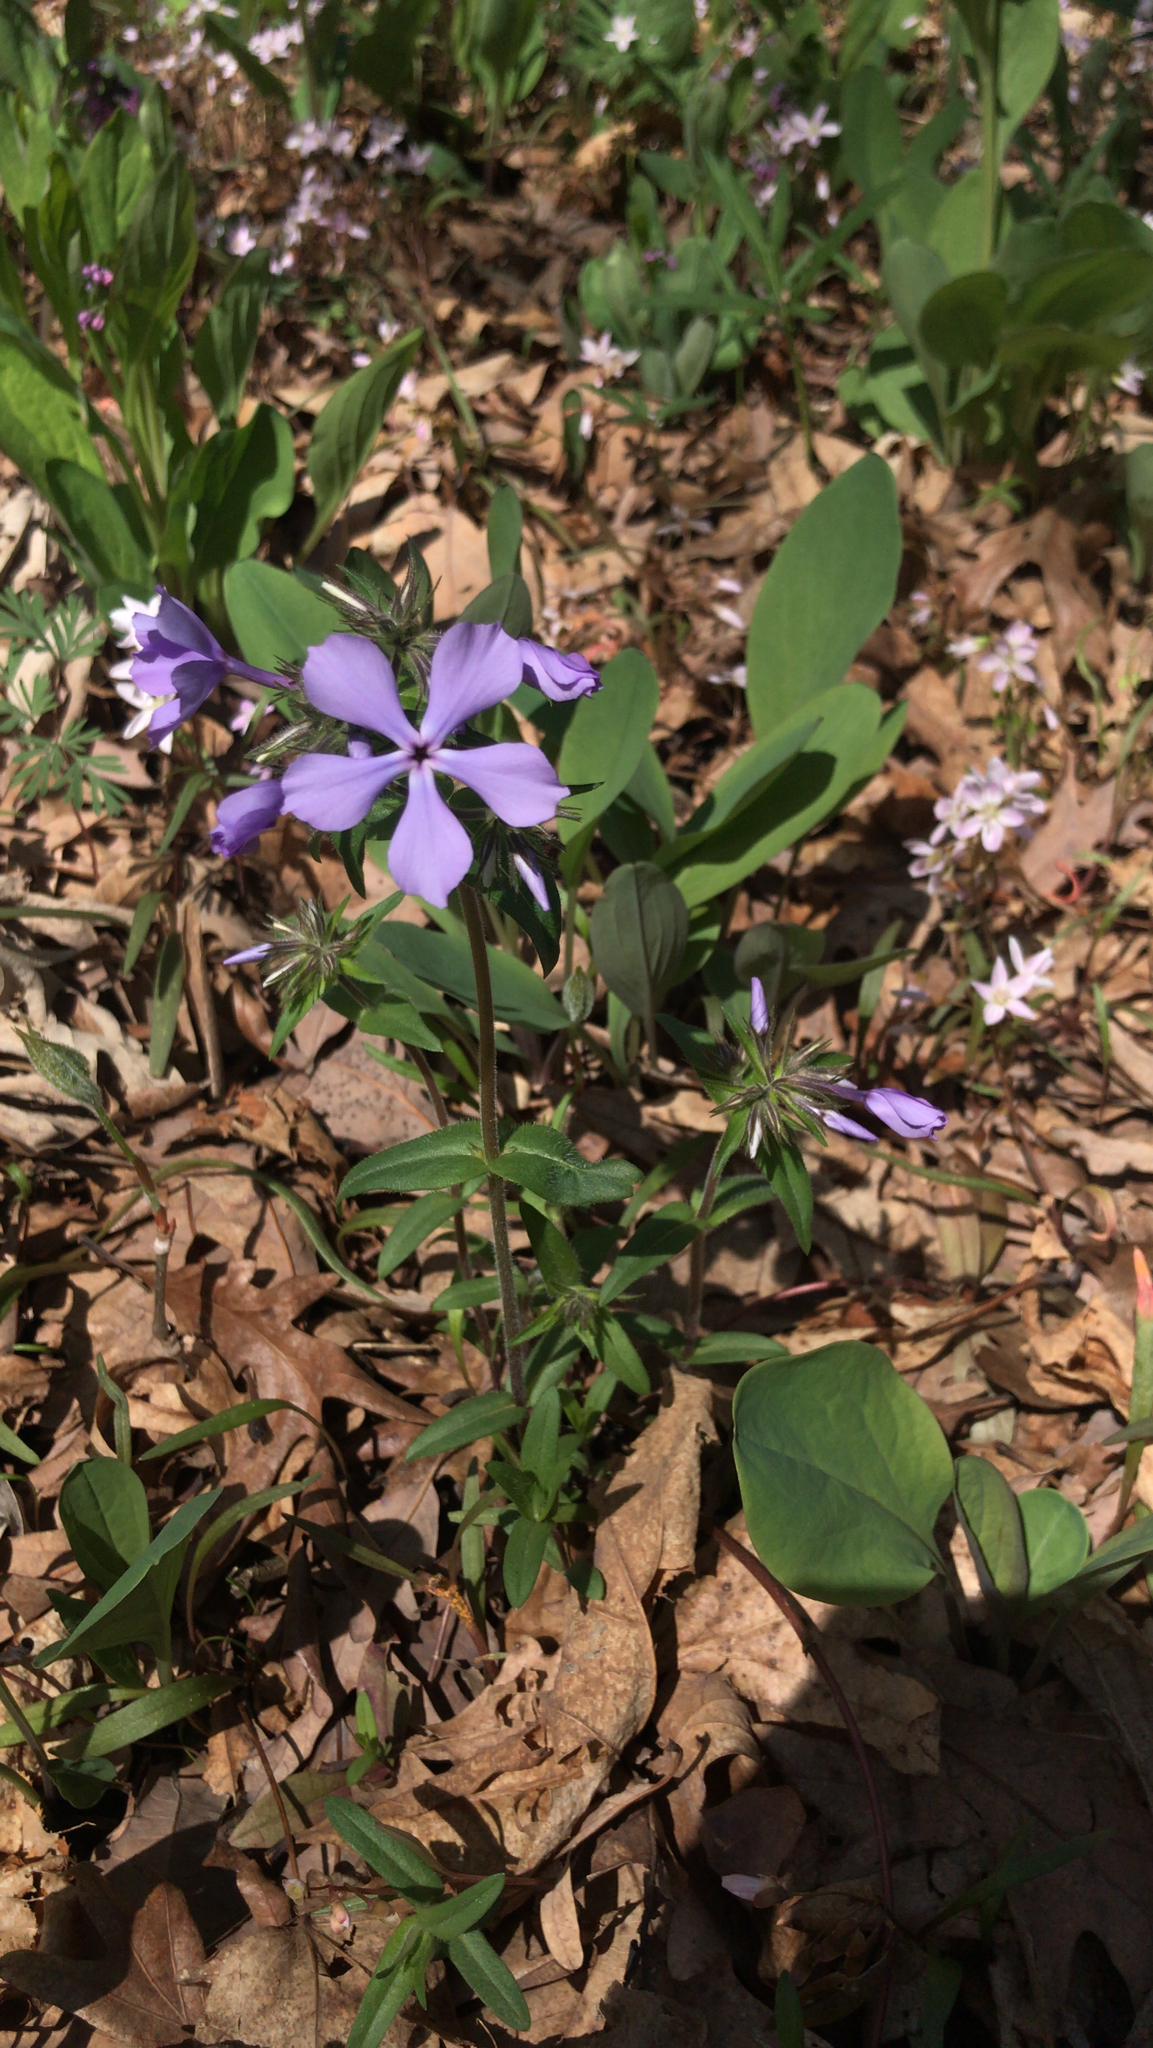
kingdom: Plantae
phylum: Tracheophyta
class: Magnoliopsida
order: Ericales
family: Polemoniaceae
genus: Phlox
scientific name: Phlox divaricata
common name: Blue phlox
